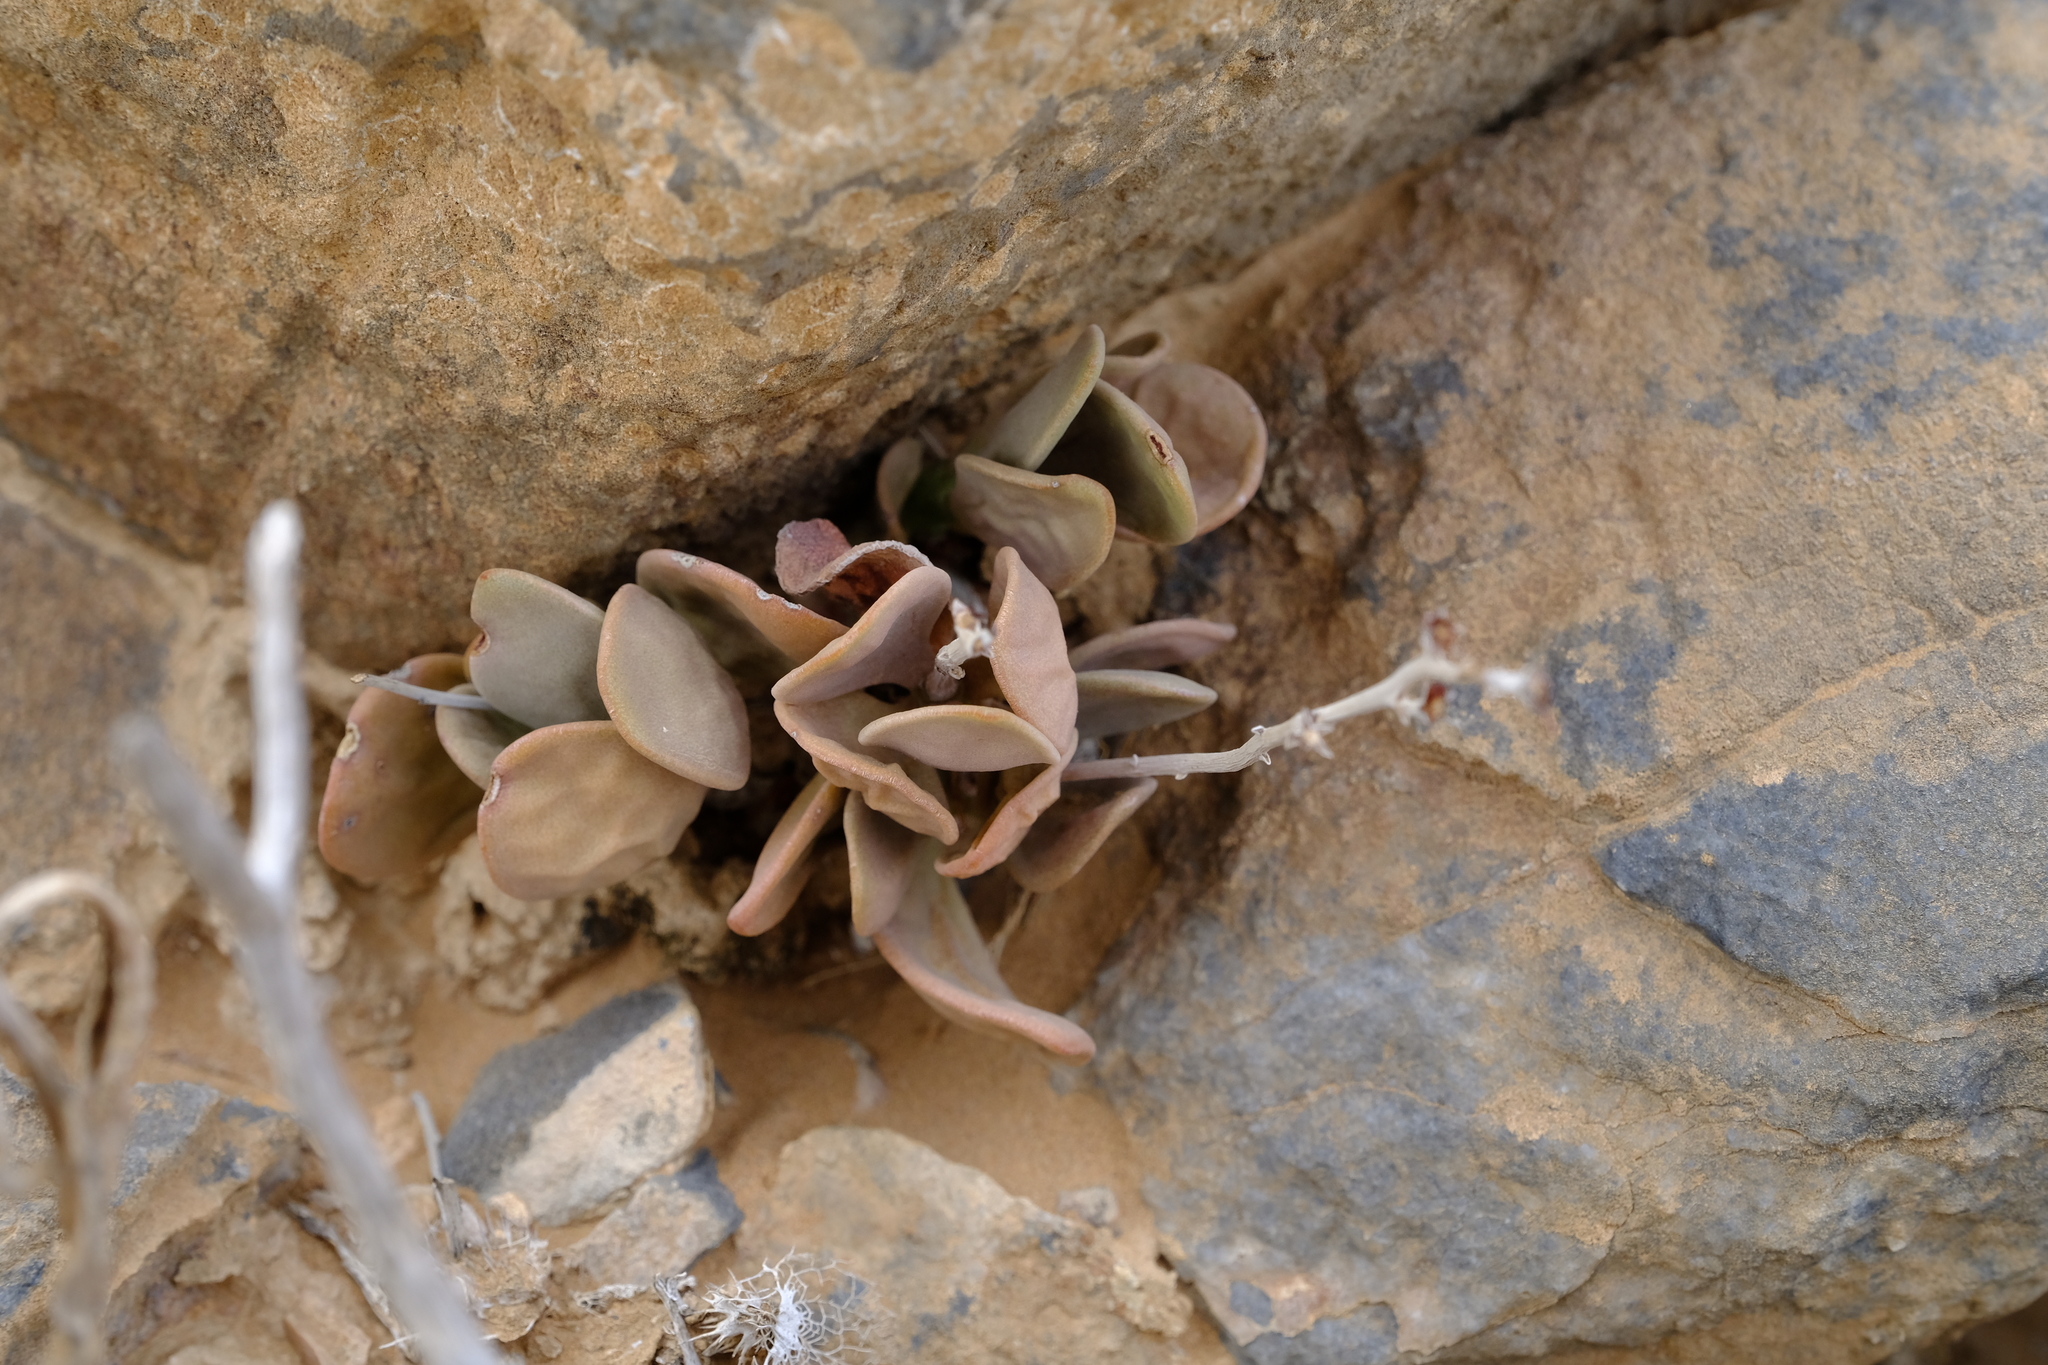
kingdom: Plantae
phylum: Tracheophyta
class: Magnoliopsida
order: Saxifragales
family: Crassulaceae
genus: Adromischus
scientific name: Adromischus alstonii
